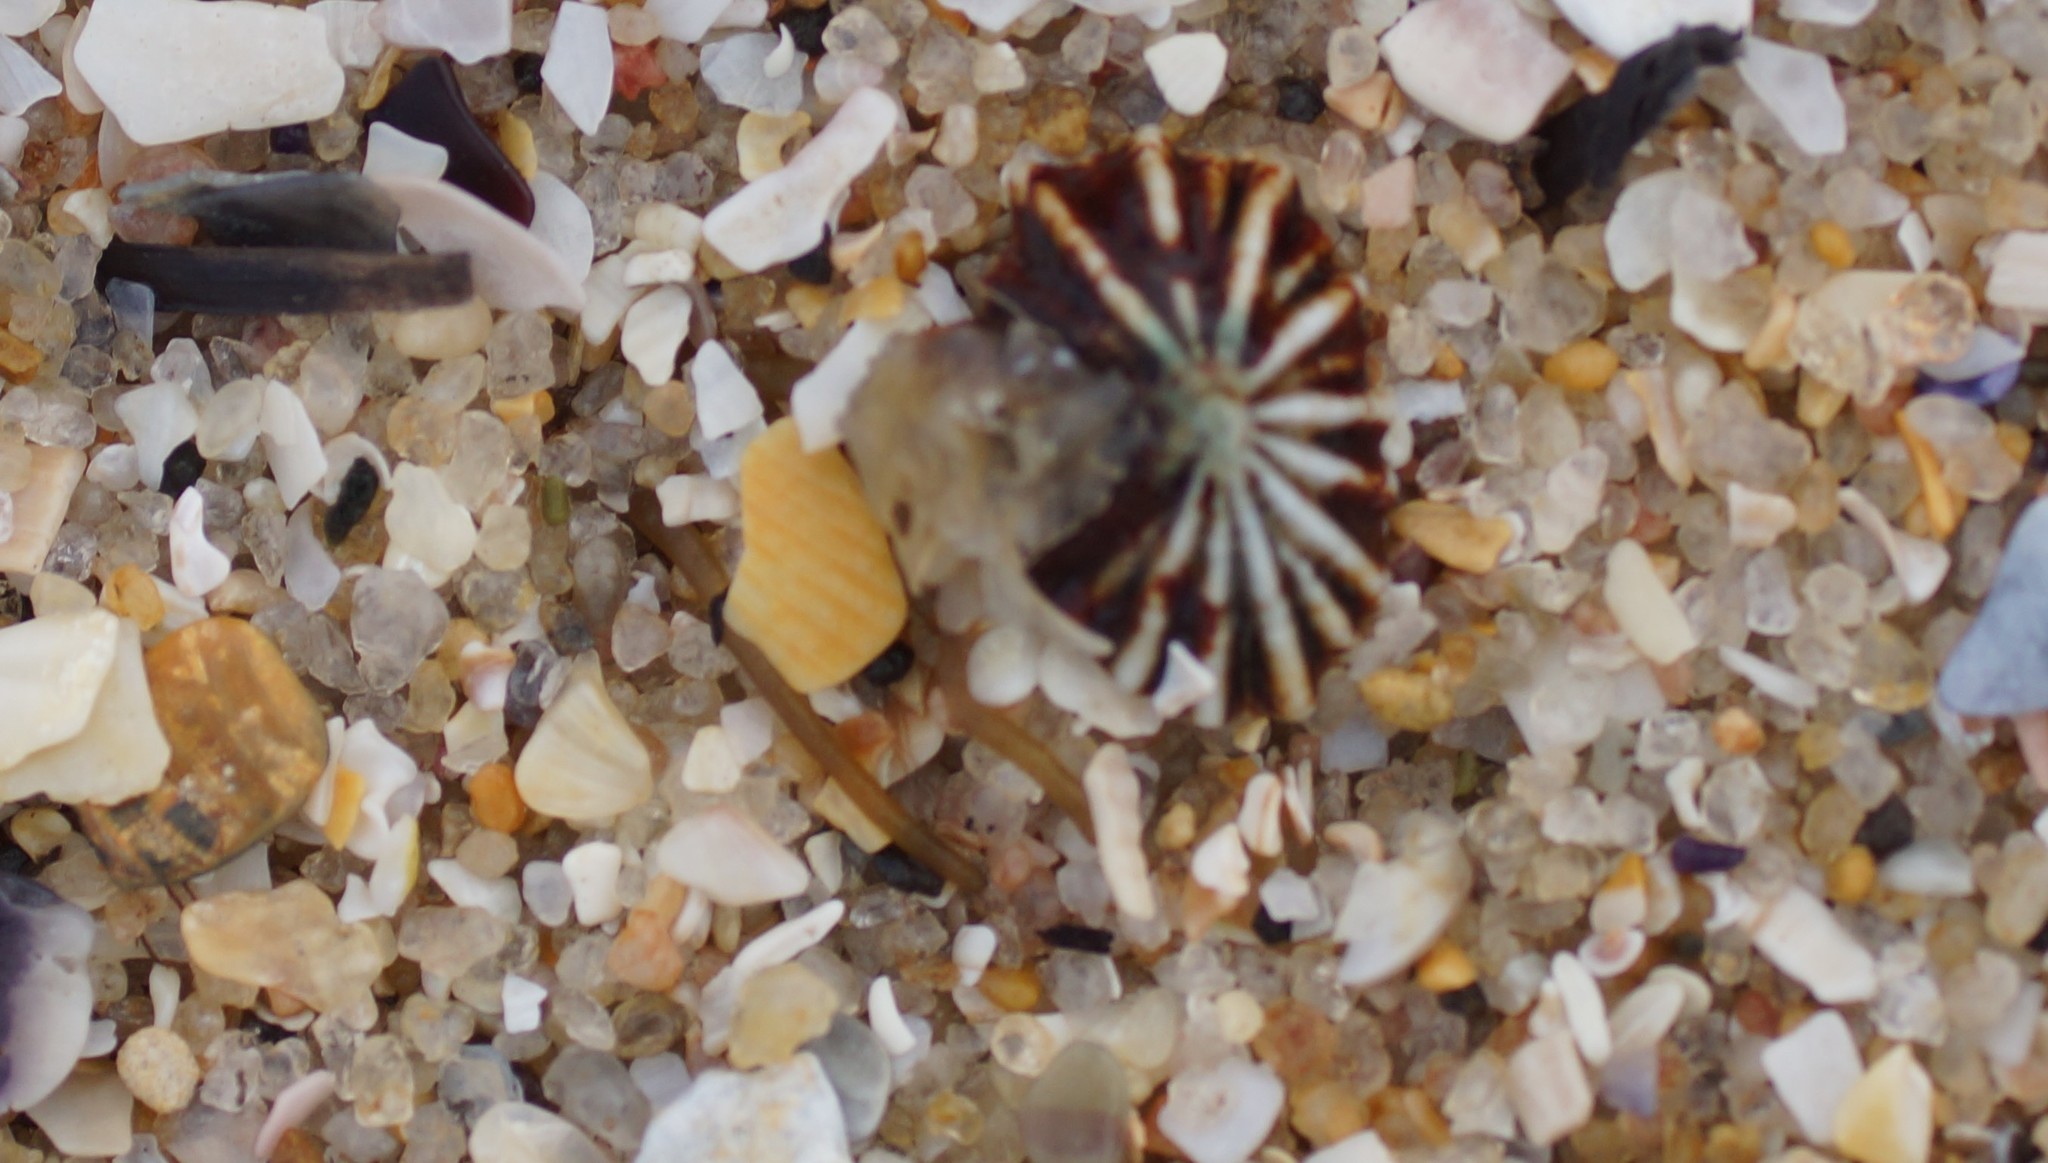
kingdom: Animalia
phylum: Mollusca
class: Gastropoda
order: Siphonariida
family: Siphonariidae
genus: Siphonaria
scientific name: Siphonaria diemenensis
